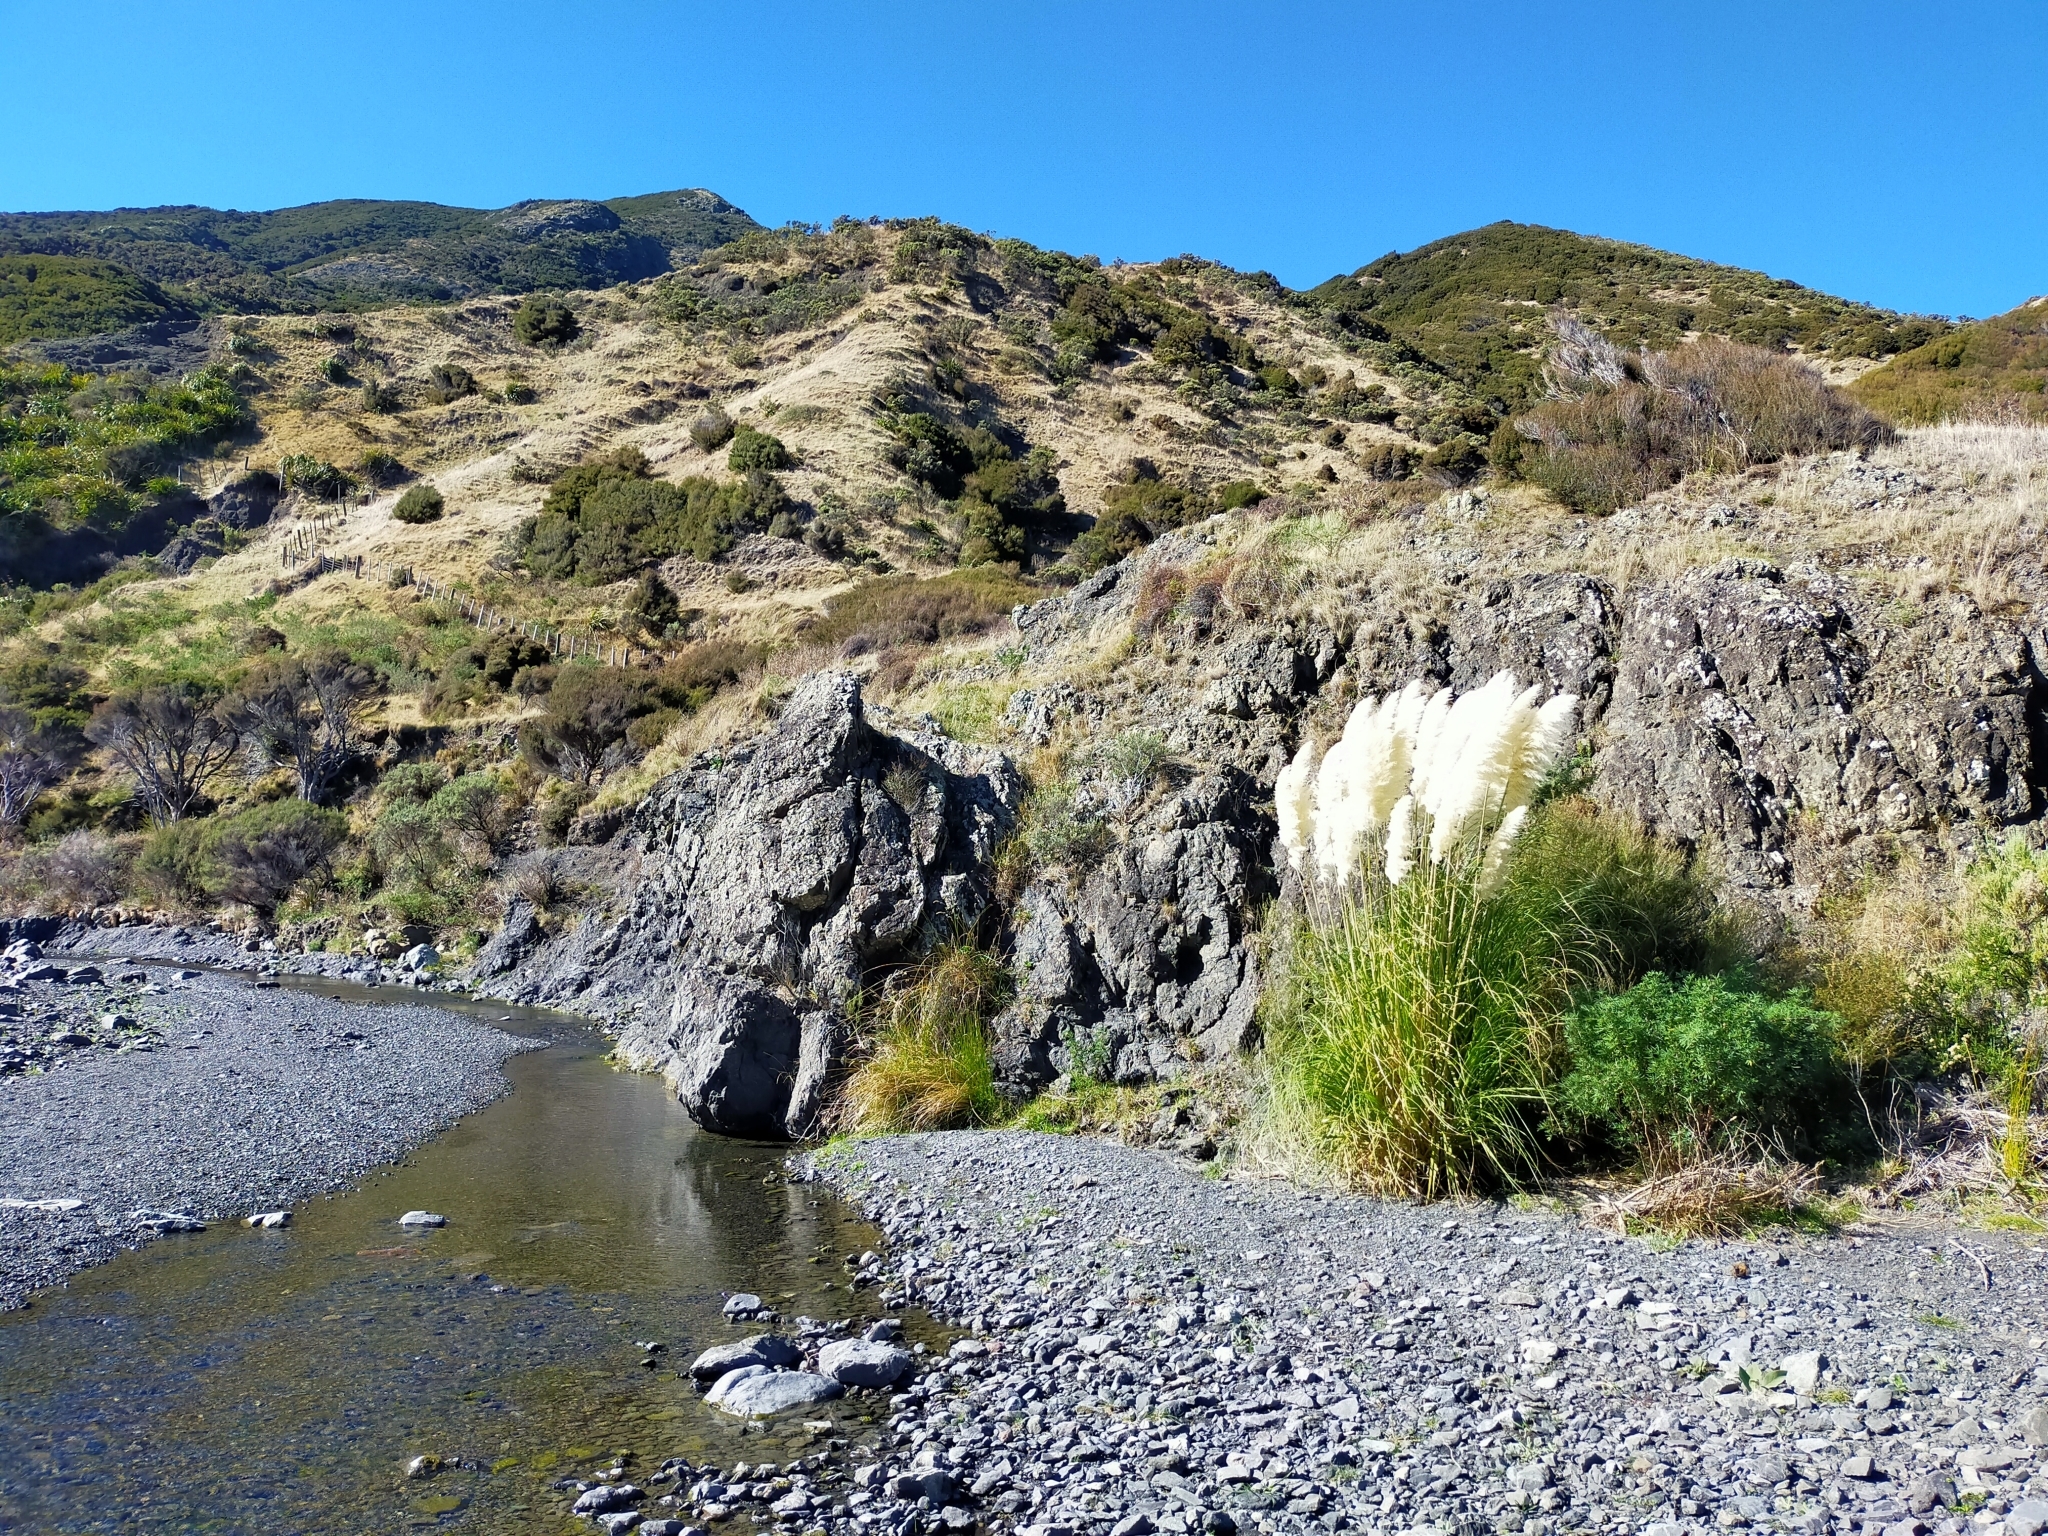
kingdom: Plantae
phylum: Tracheophyta
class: Liliopsida
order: Poales
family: Poaceae
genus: Cortaderia
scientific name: Cortaderia selloana
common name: Uruguayan pampas grass
